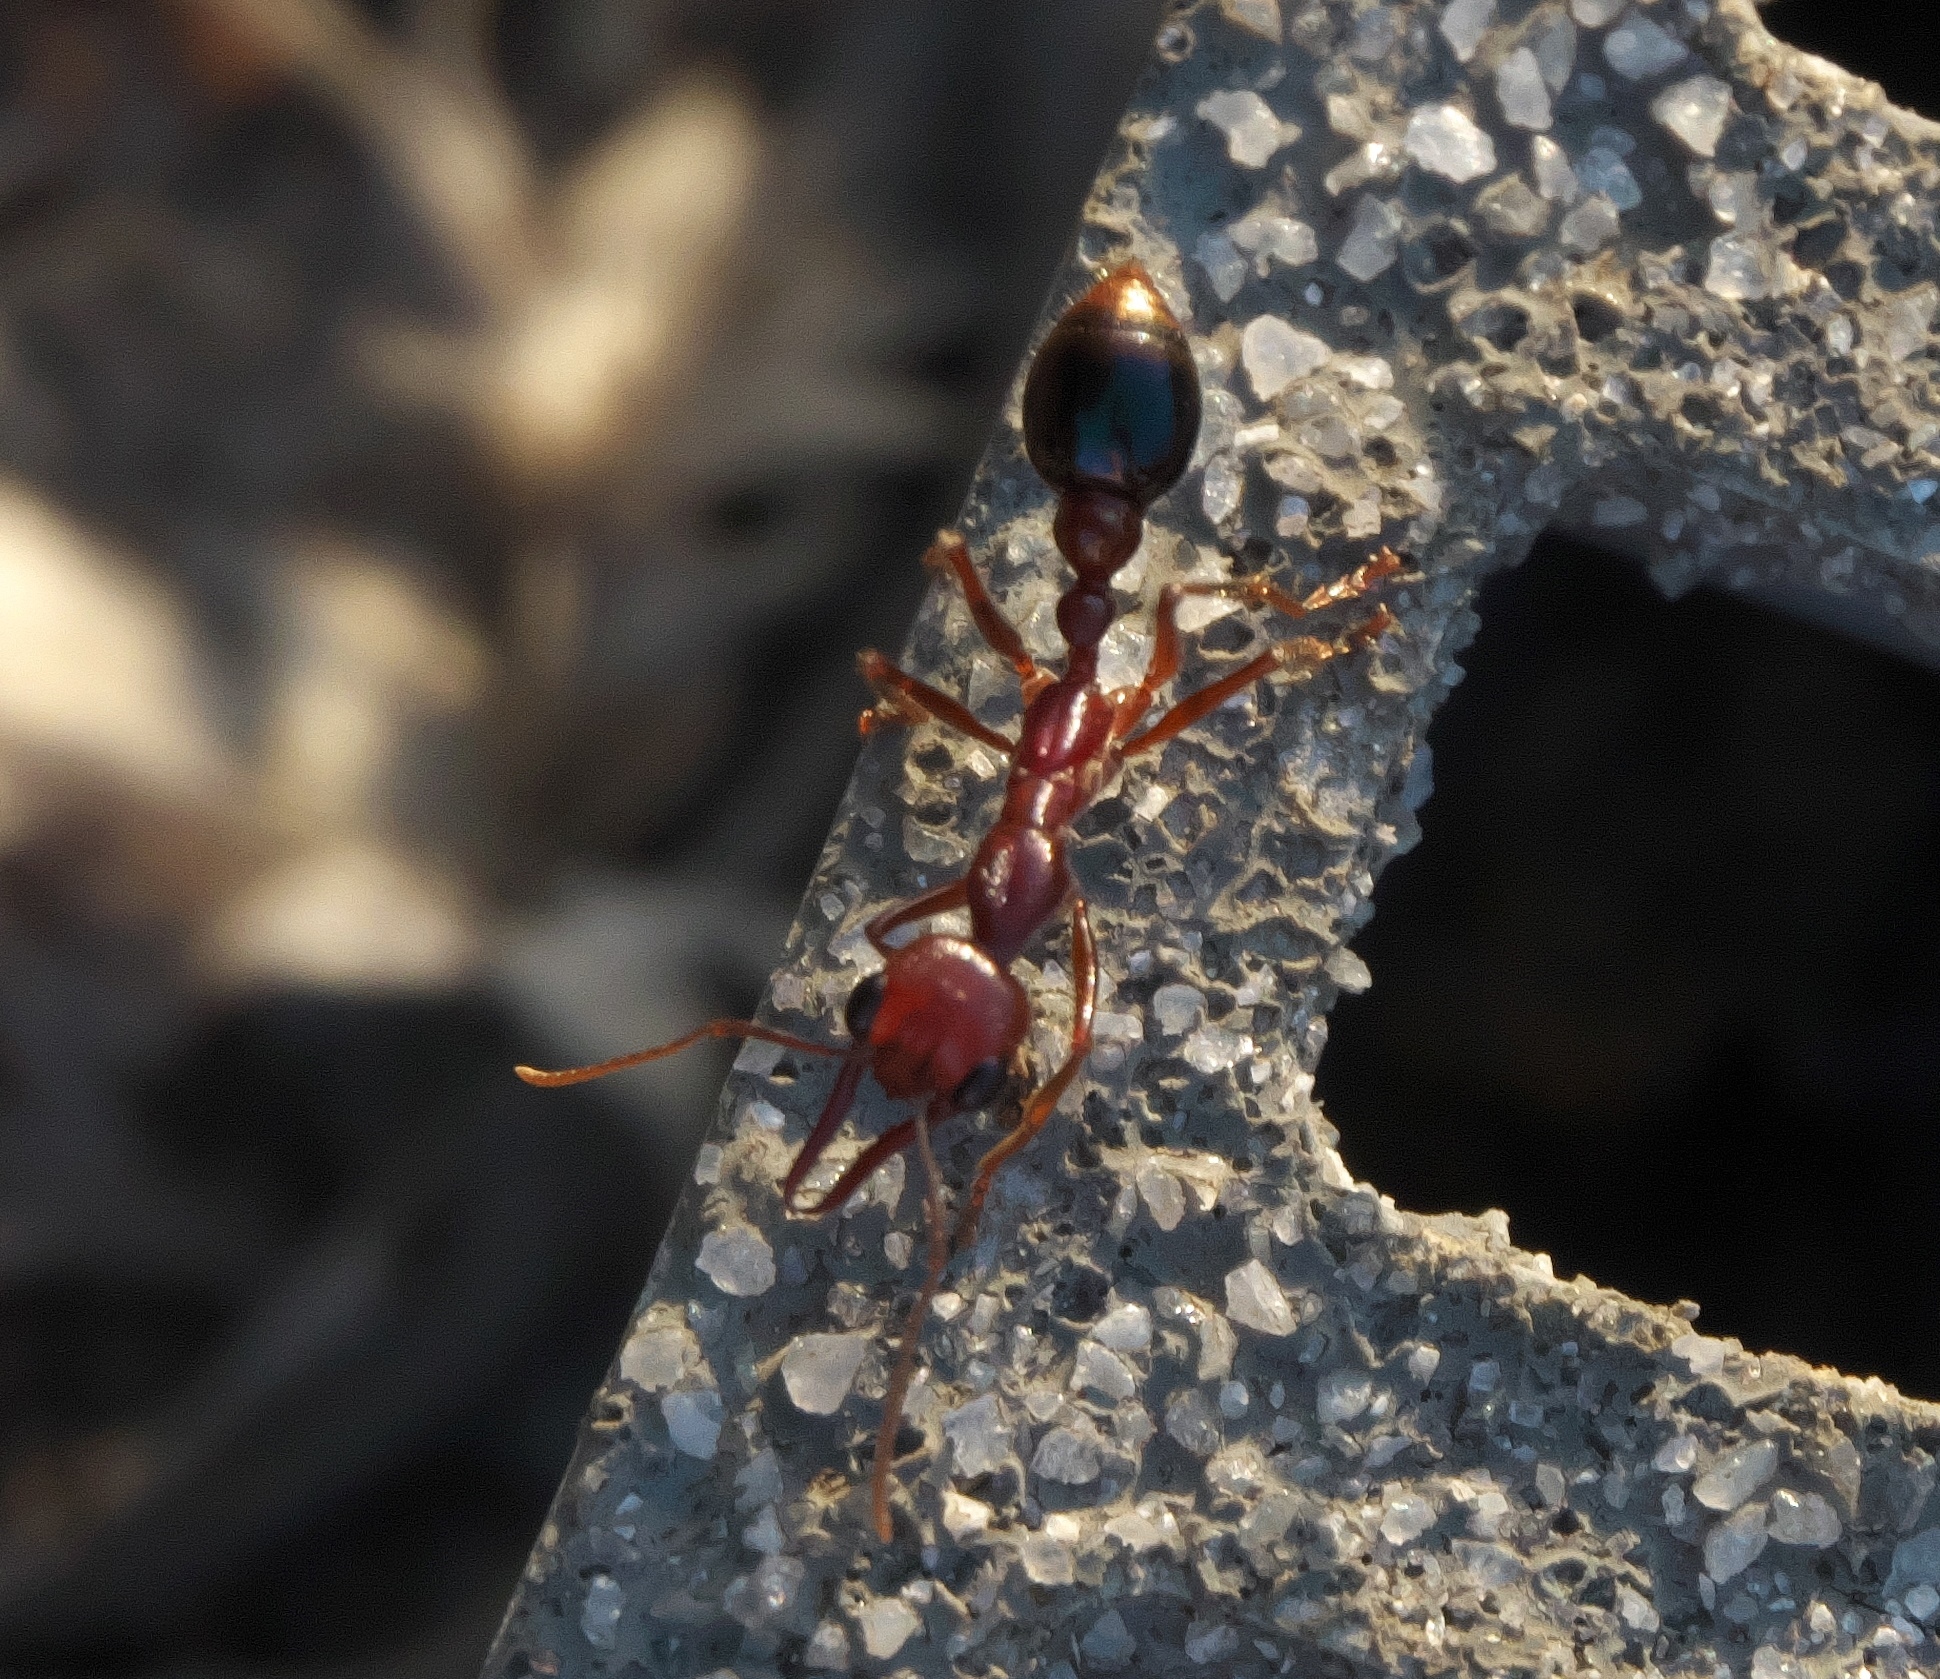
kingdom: Animalia
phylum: Arthropoda
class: Insecta
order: Hymenoptera
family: Formicidae
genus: Myrmecia
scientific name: Myrmecia regularis
